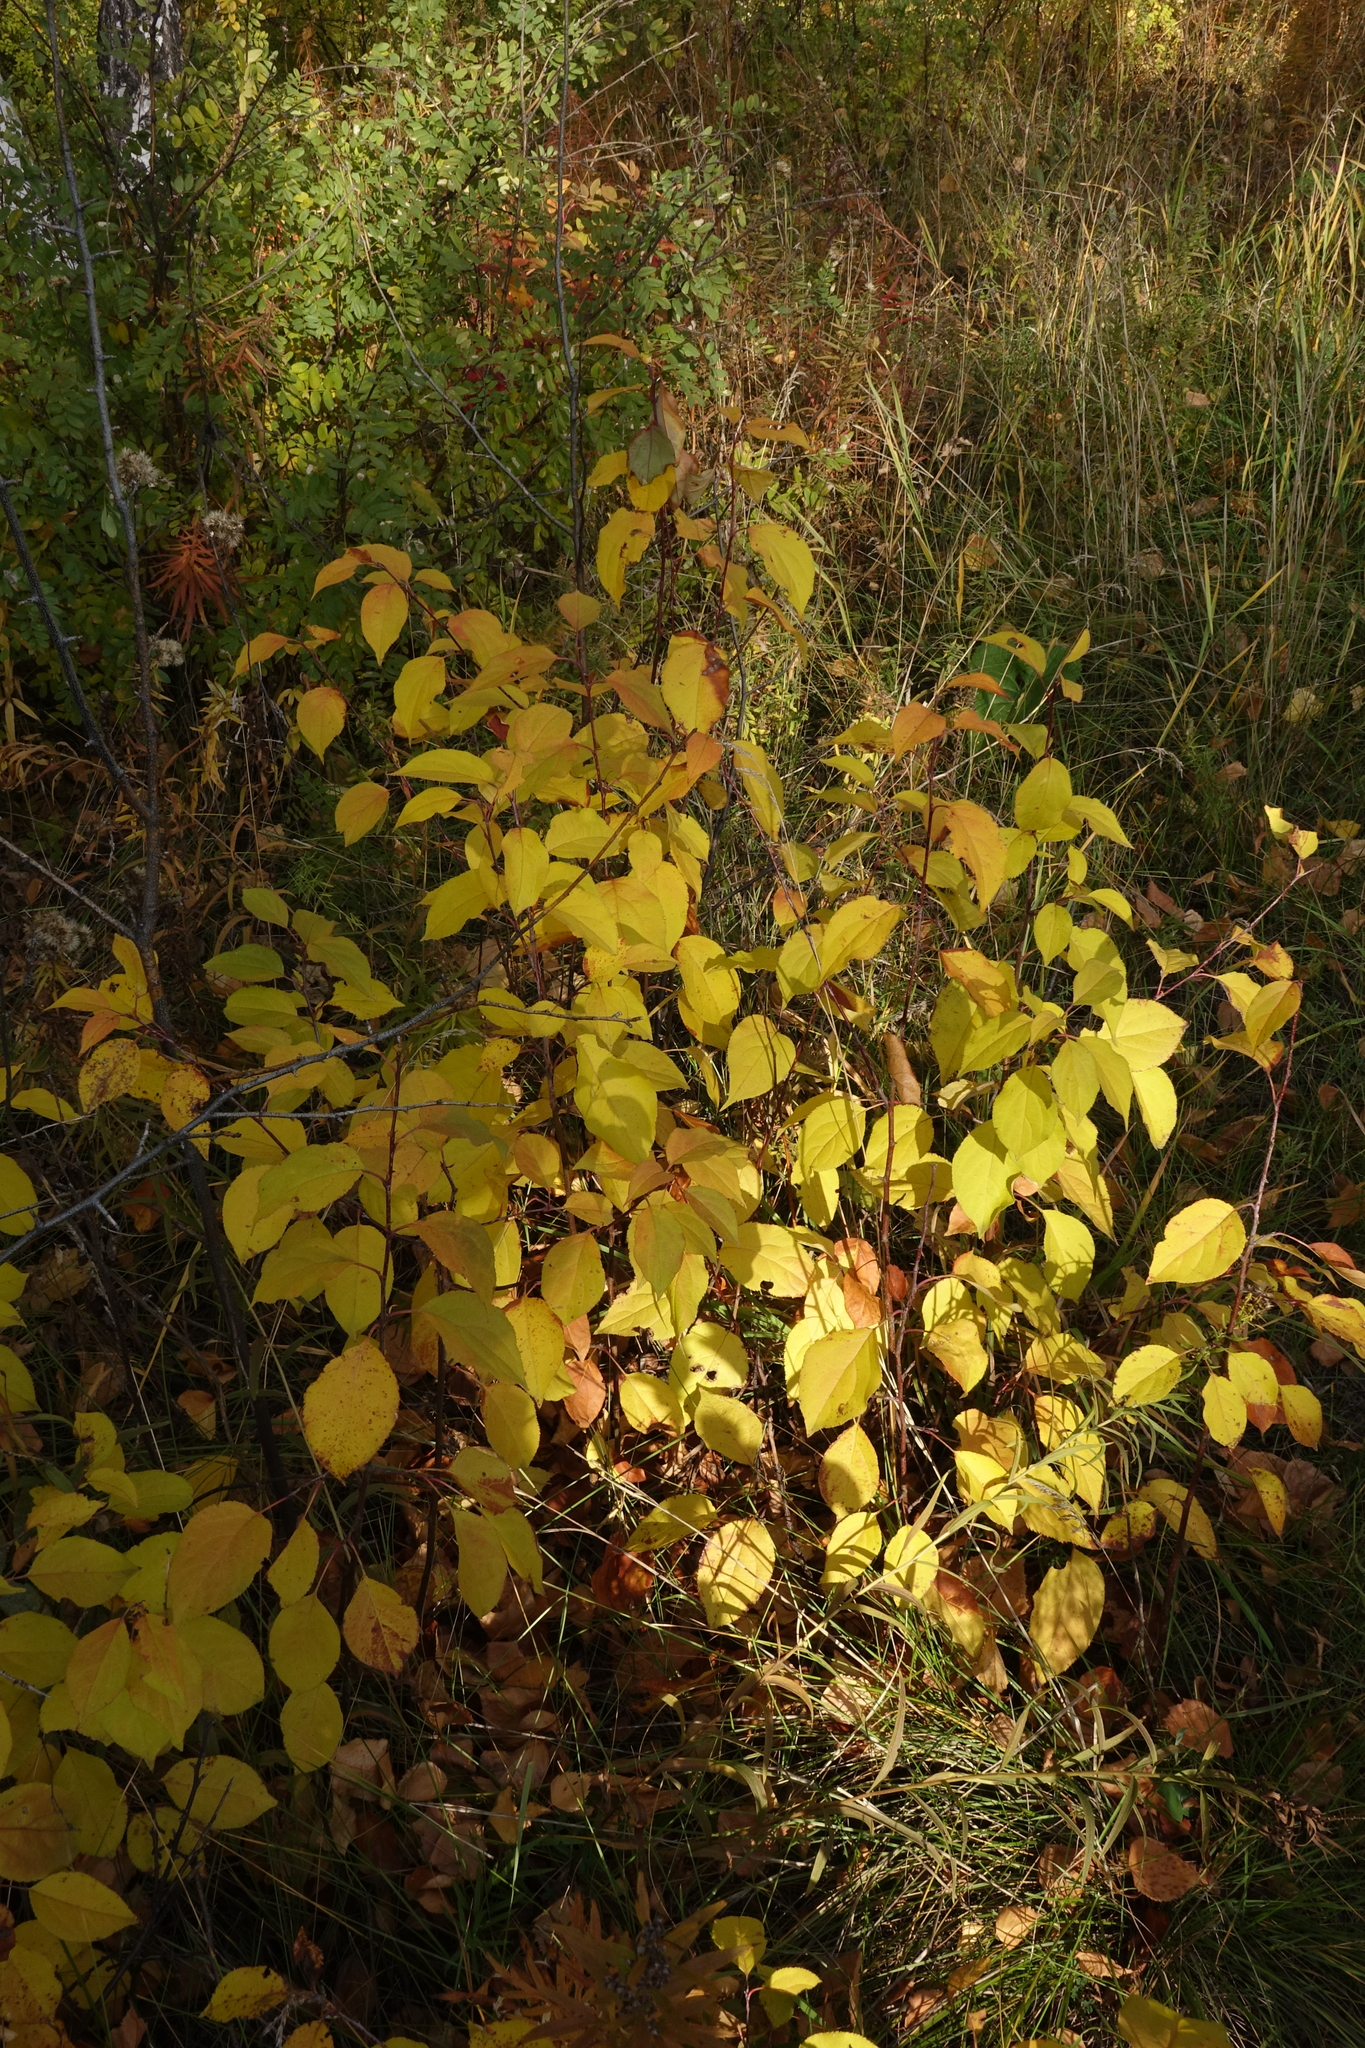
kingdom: Plantae
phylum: Tracheophyta
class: Magnoliopsida
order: Rosales
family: Rosaceae
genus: Malus
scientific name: Malus baccata
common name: Siberian crab
